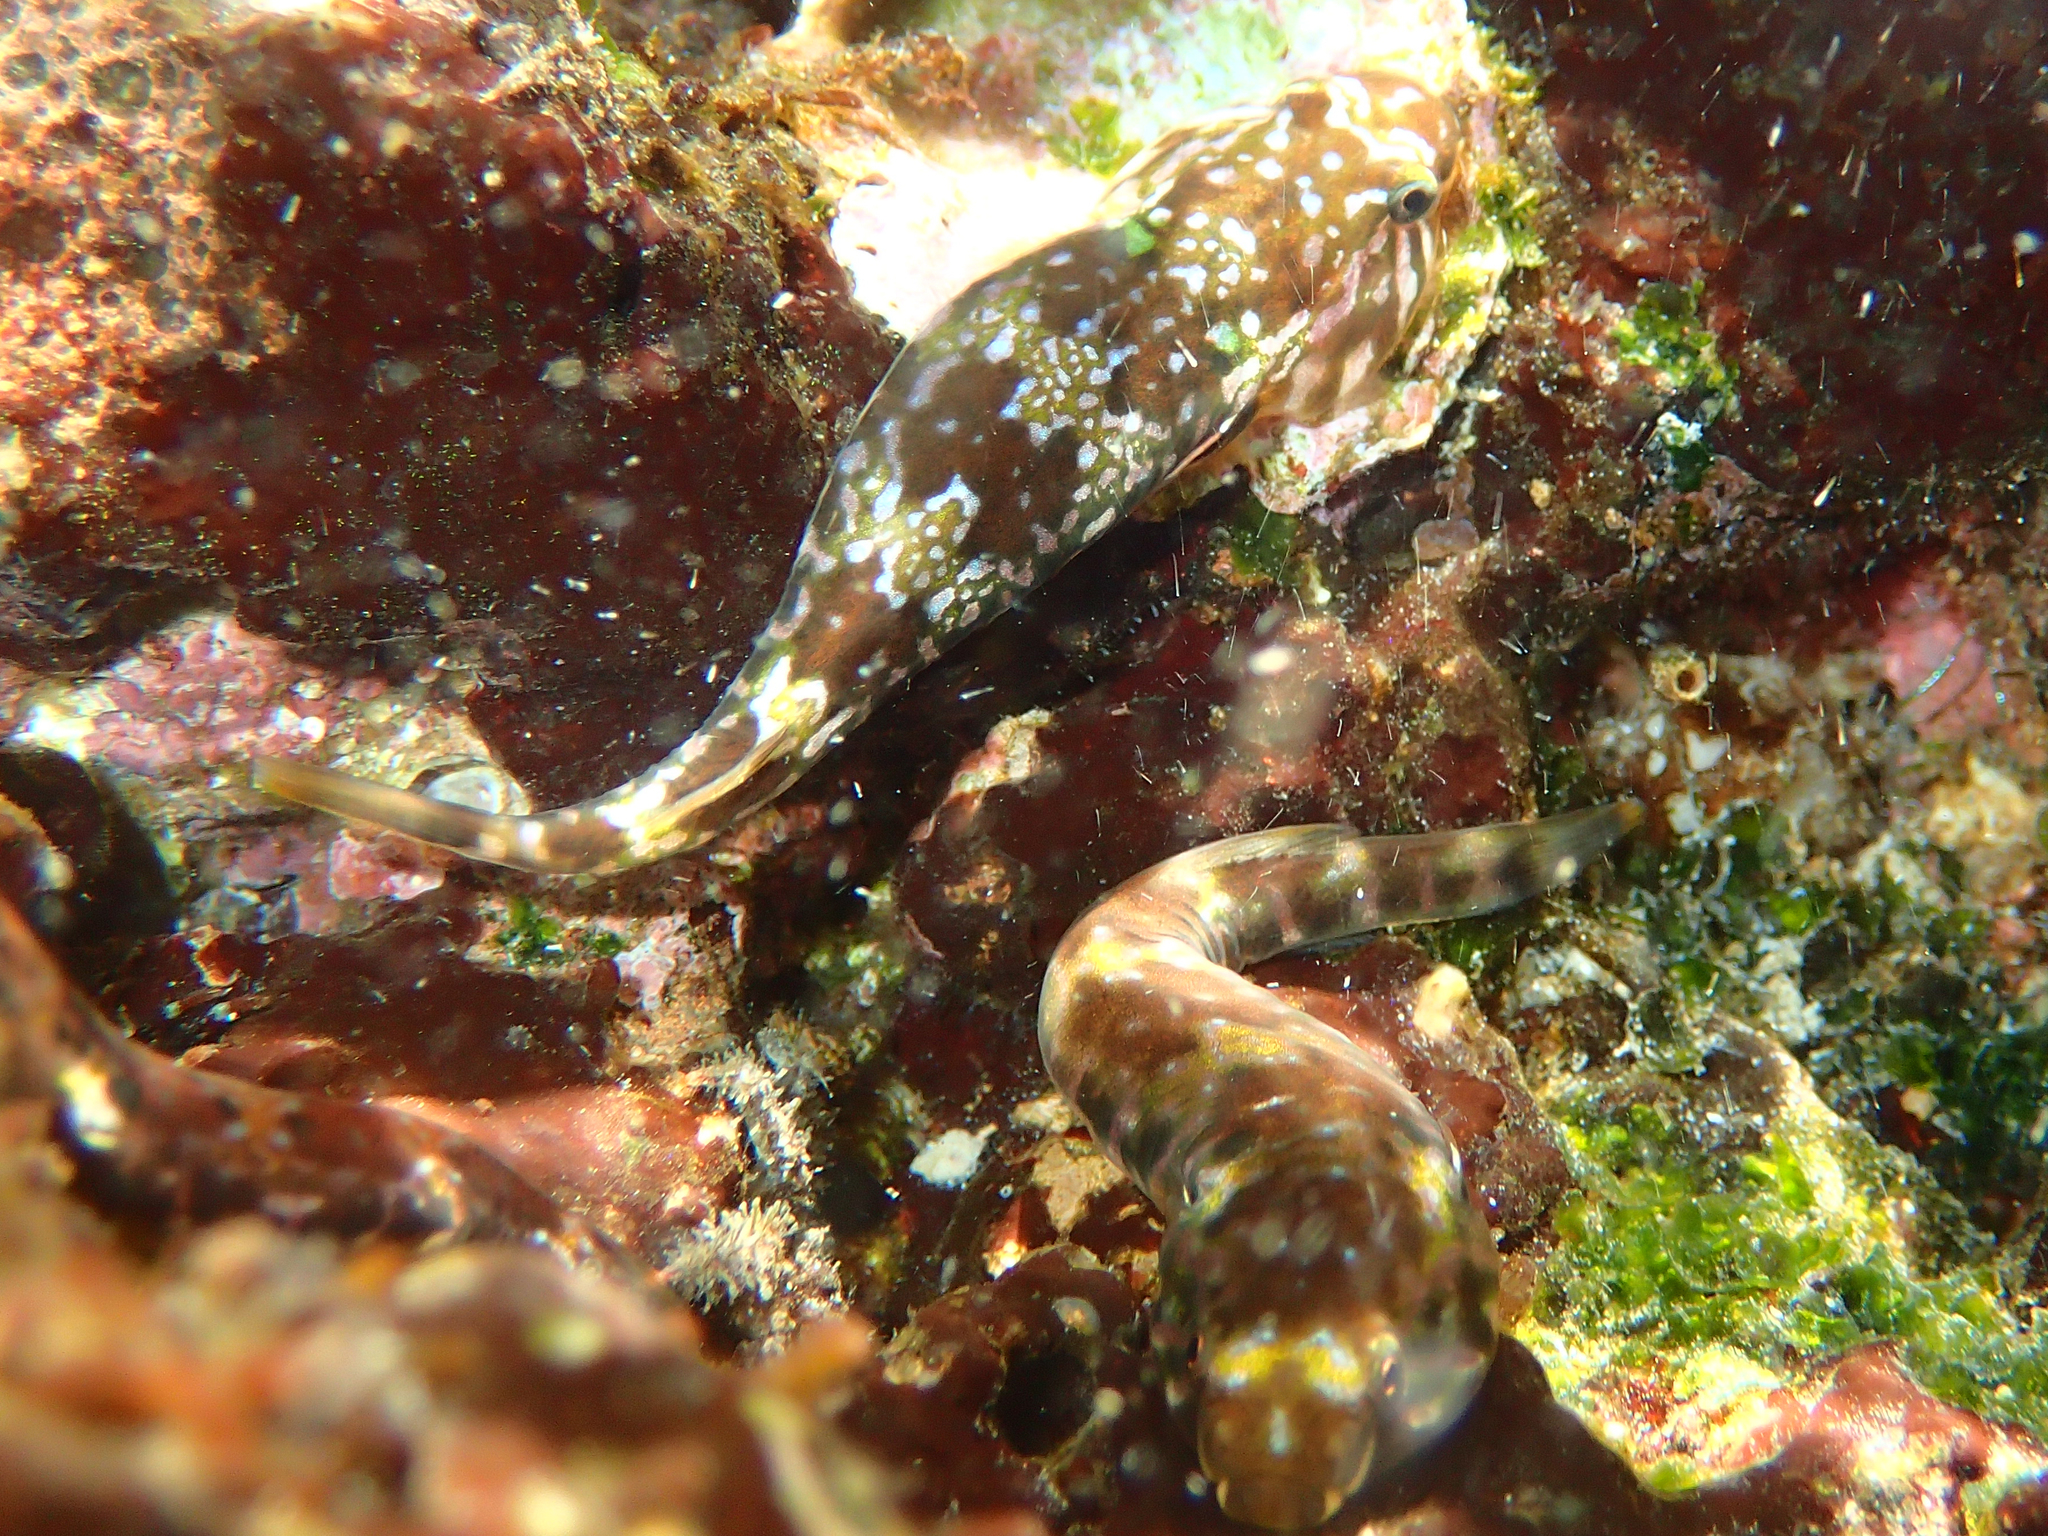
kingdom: Animalia
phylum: Chordata
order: Gobiesociformes
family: Gobiesocidae
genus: Tomicodon
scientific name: Tomicodon petersii
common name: Hourglass clingfish
